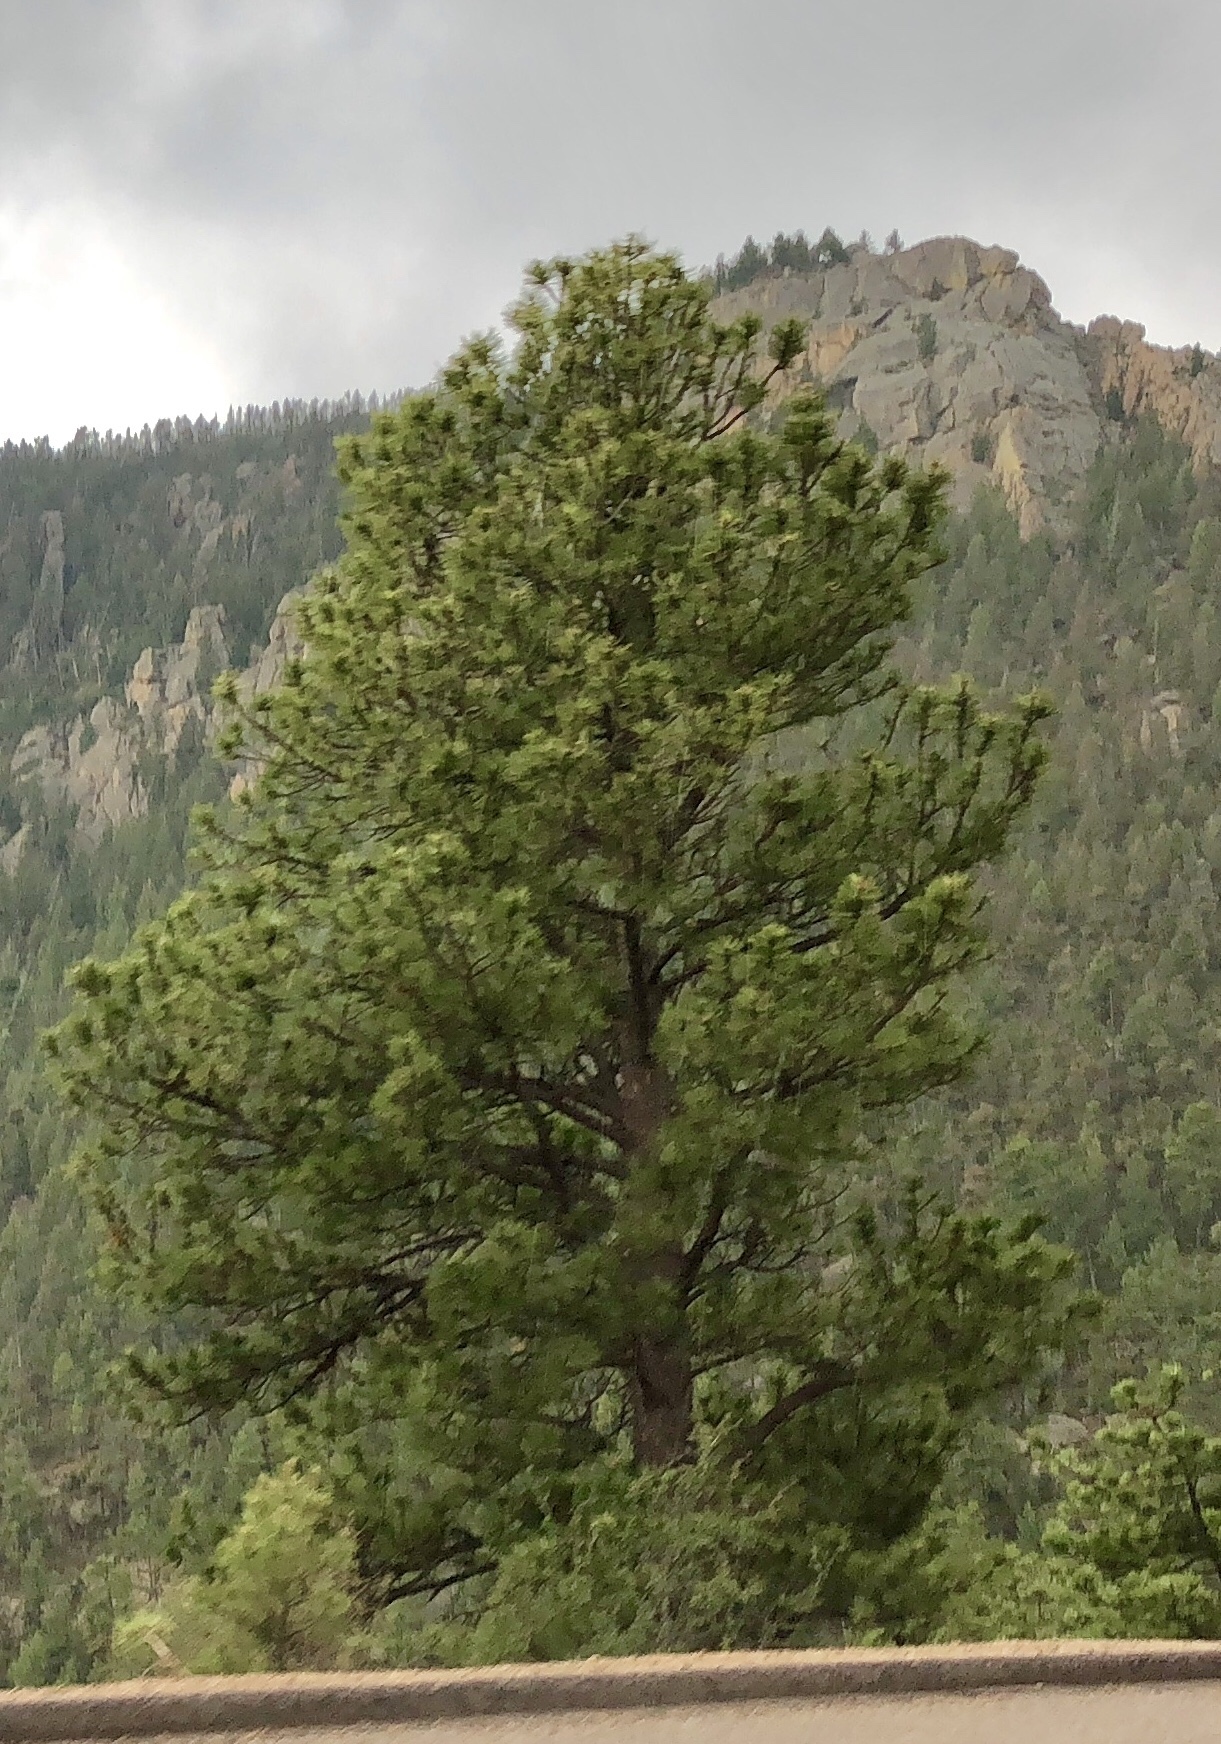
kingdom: Plantae
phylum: Tracheophyta
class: Pinopsida
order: Pinales
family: Pinaceae
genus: Pinus
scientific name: Pinus ponderosa
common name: Western yellow-pine
